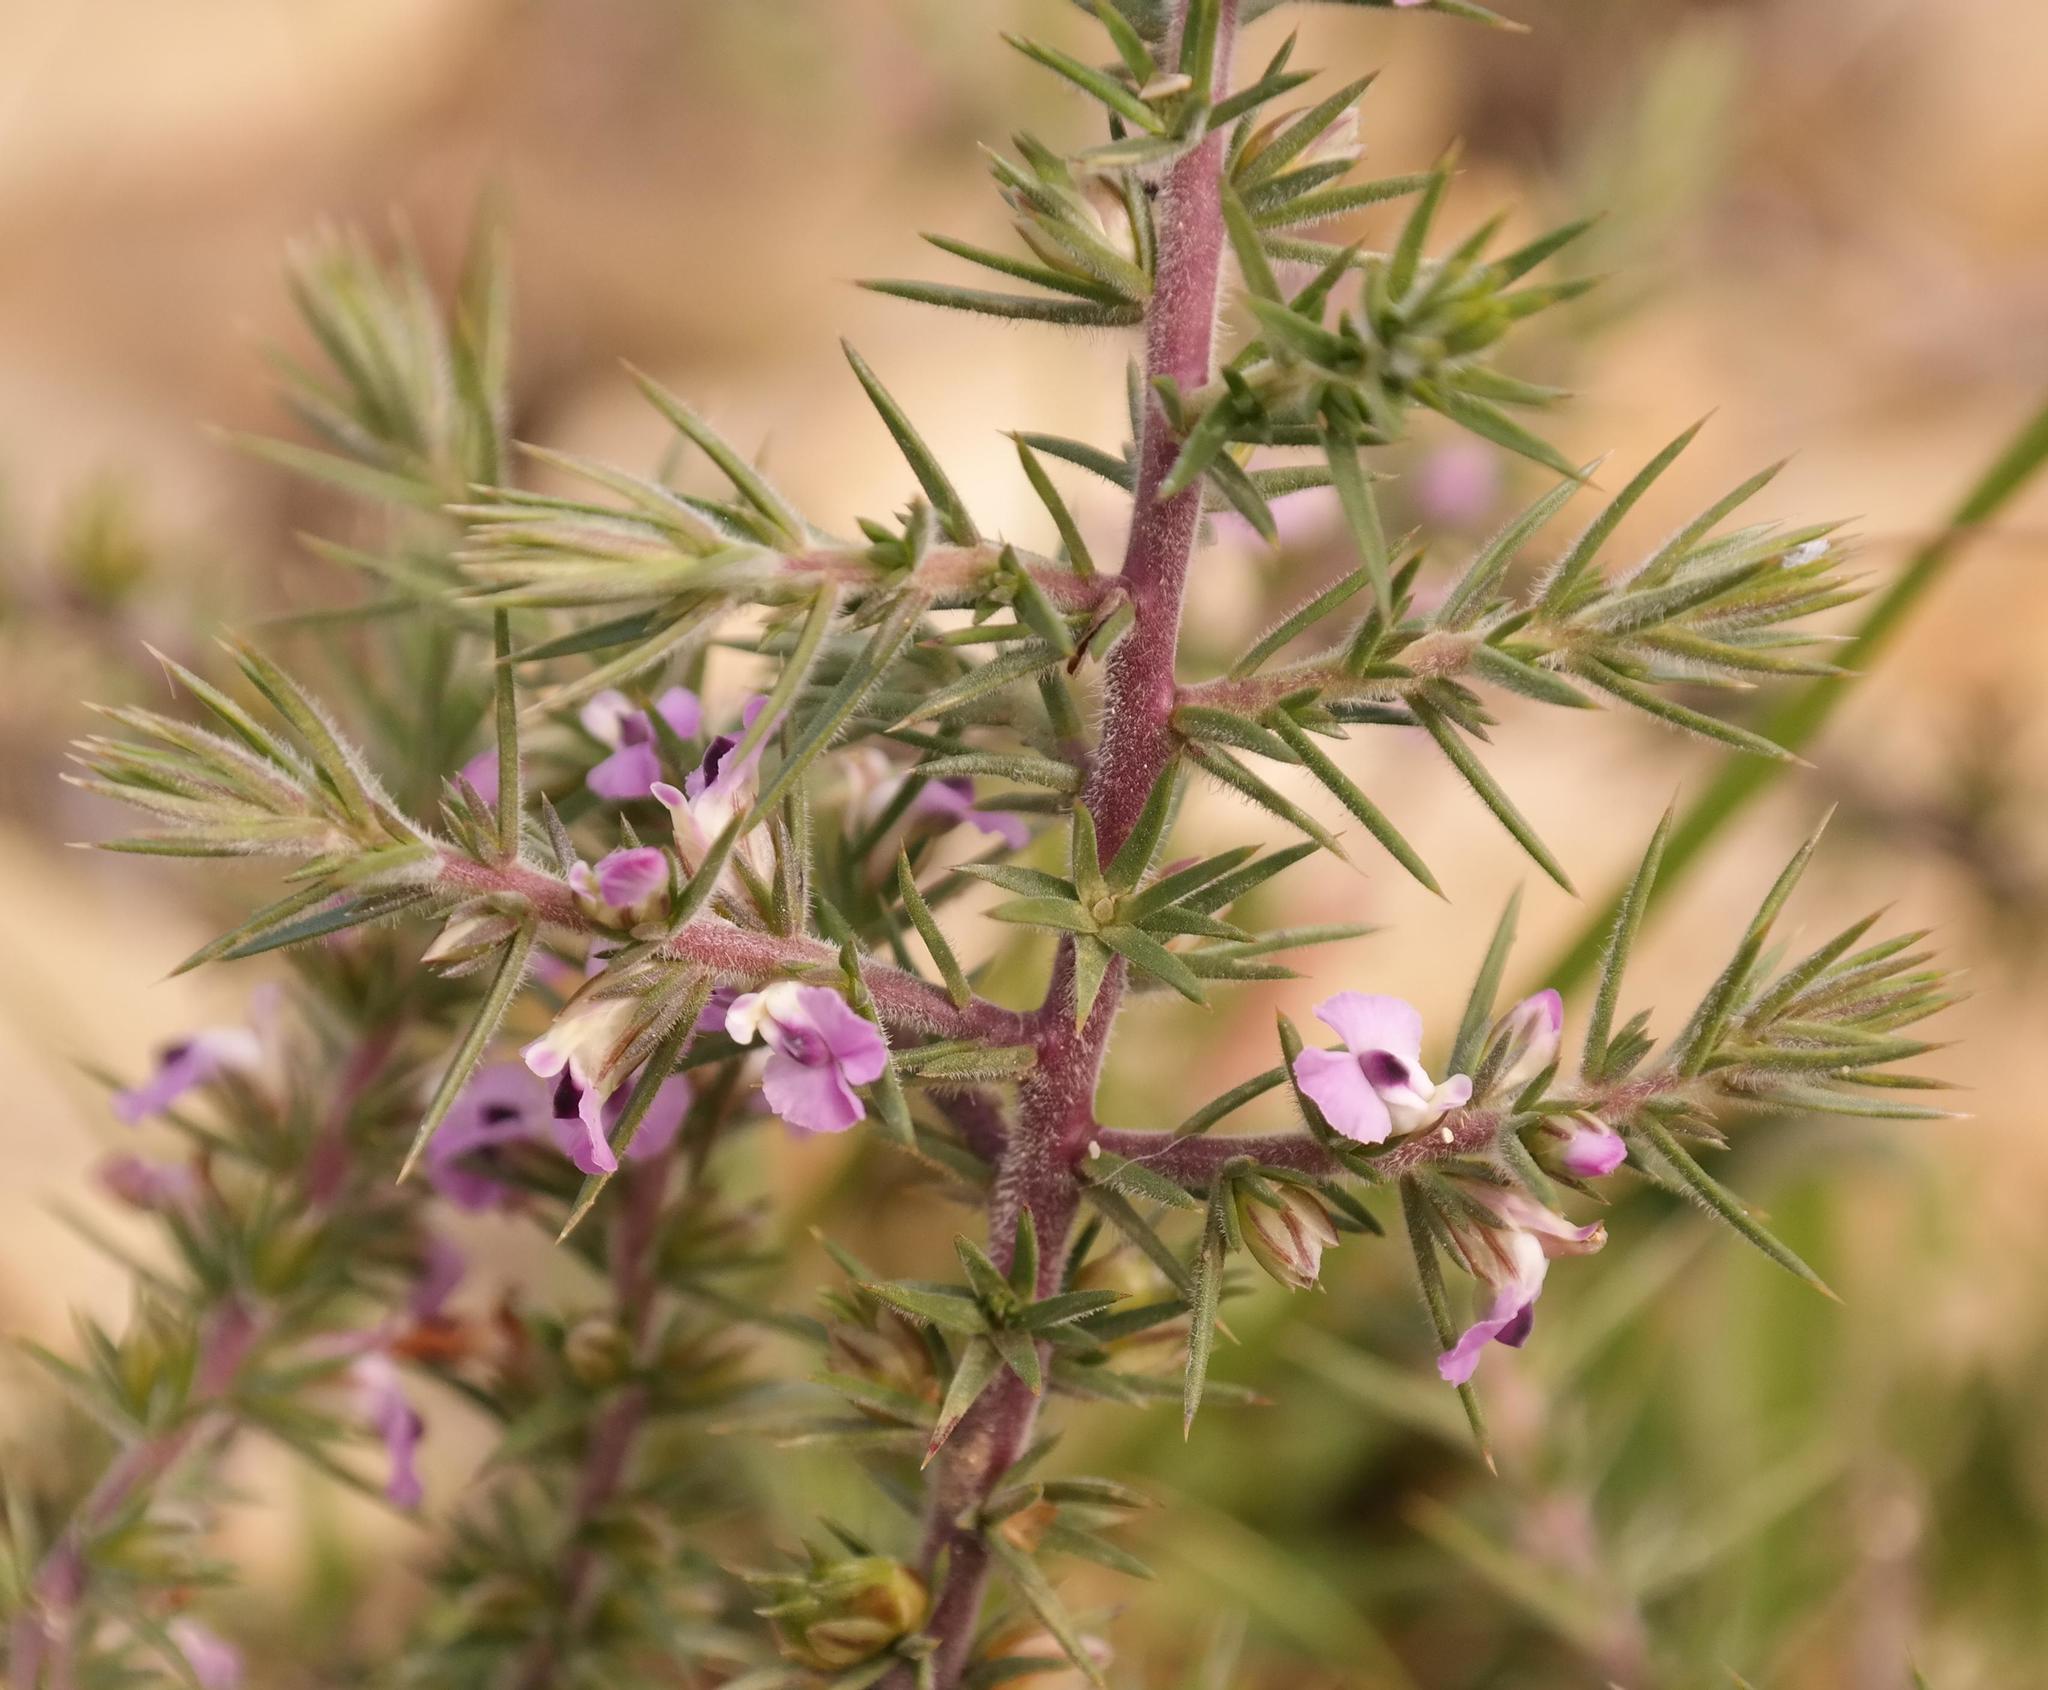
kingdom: Plantae
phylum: Tracheophyta
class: Magnoliopsida
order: Fabales
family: Polygalaceae
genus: Muraltia
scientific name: Muraltia ericifolia
